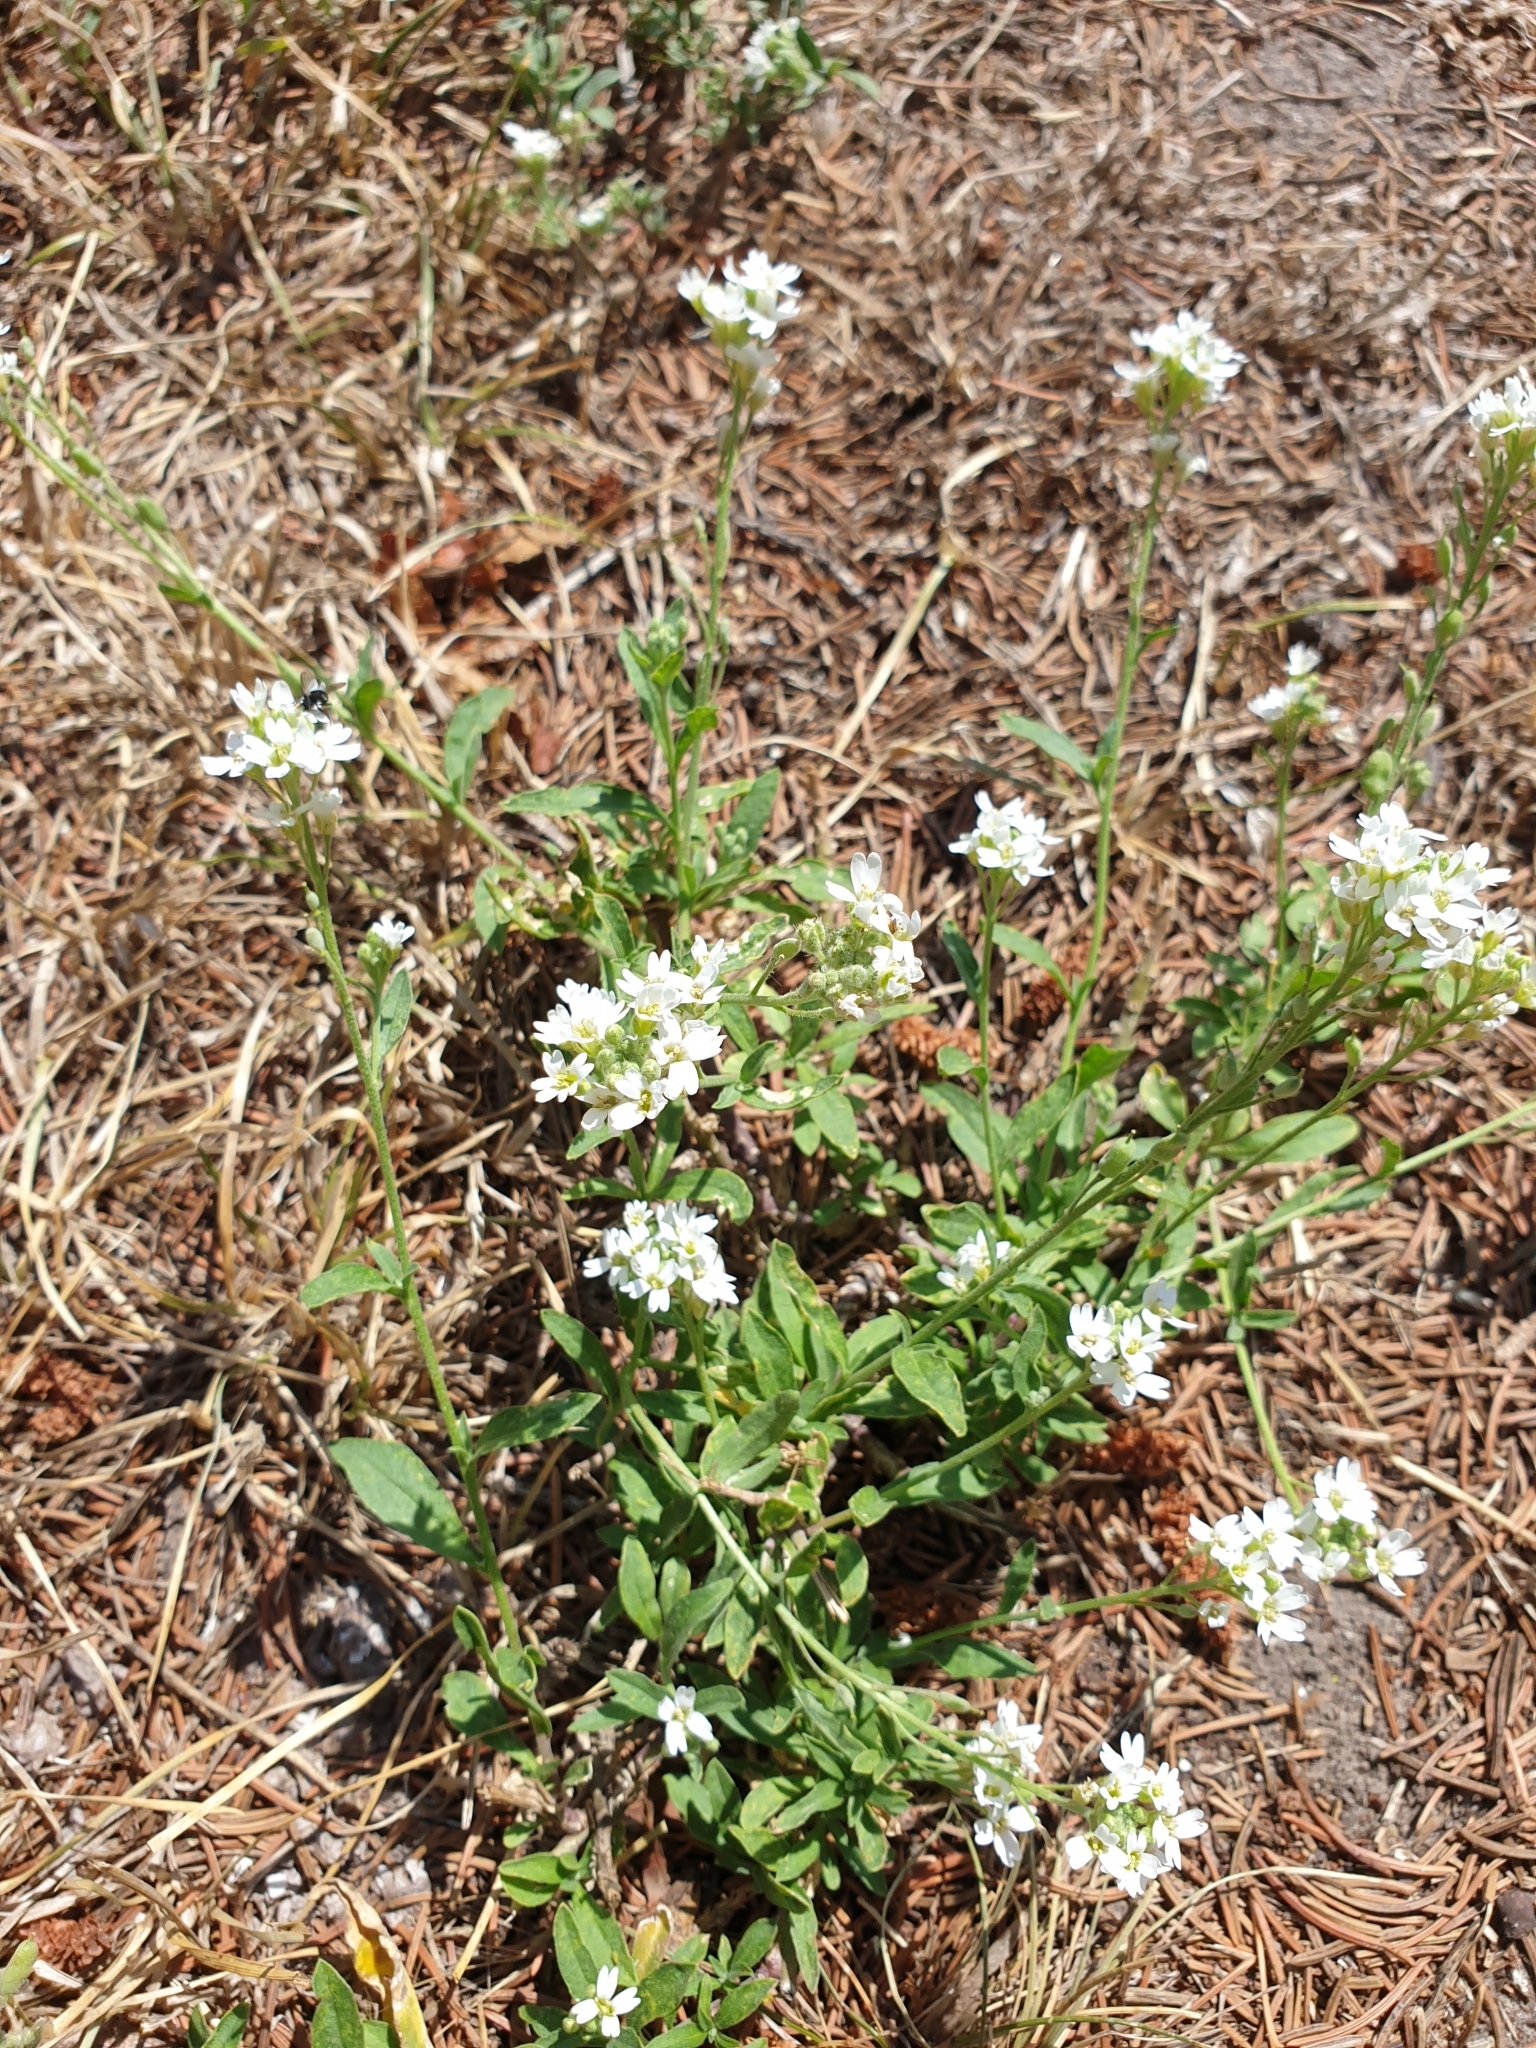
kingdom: Plantae
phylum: Tracheophyta
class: Magnoliopsida
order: Brassicales
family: Brassicaceae
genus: Berteroa
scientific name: Berteroa incana
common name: Hoary alison
